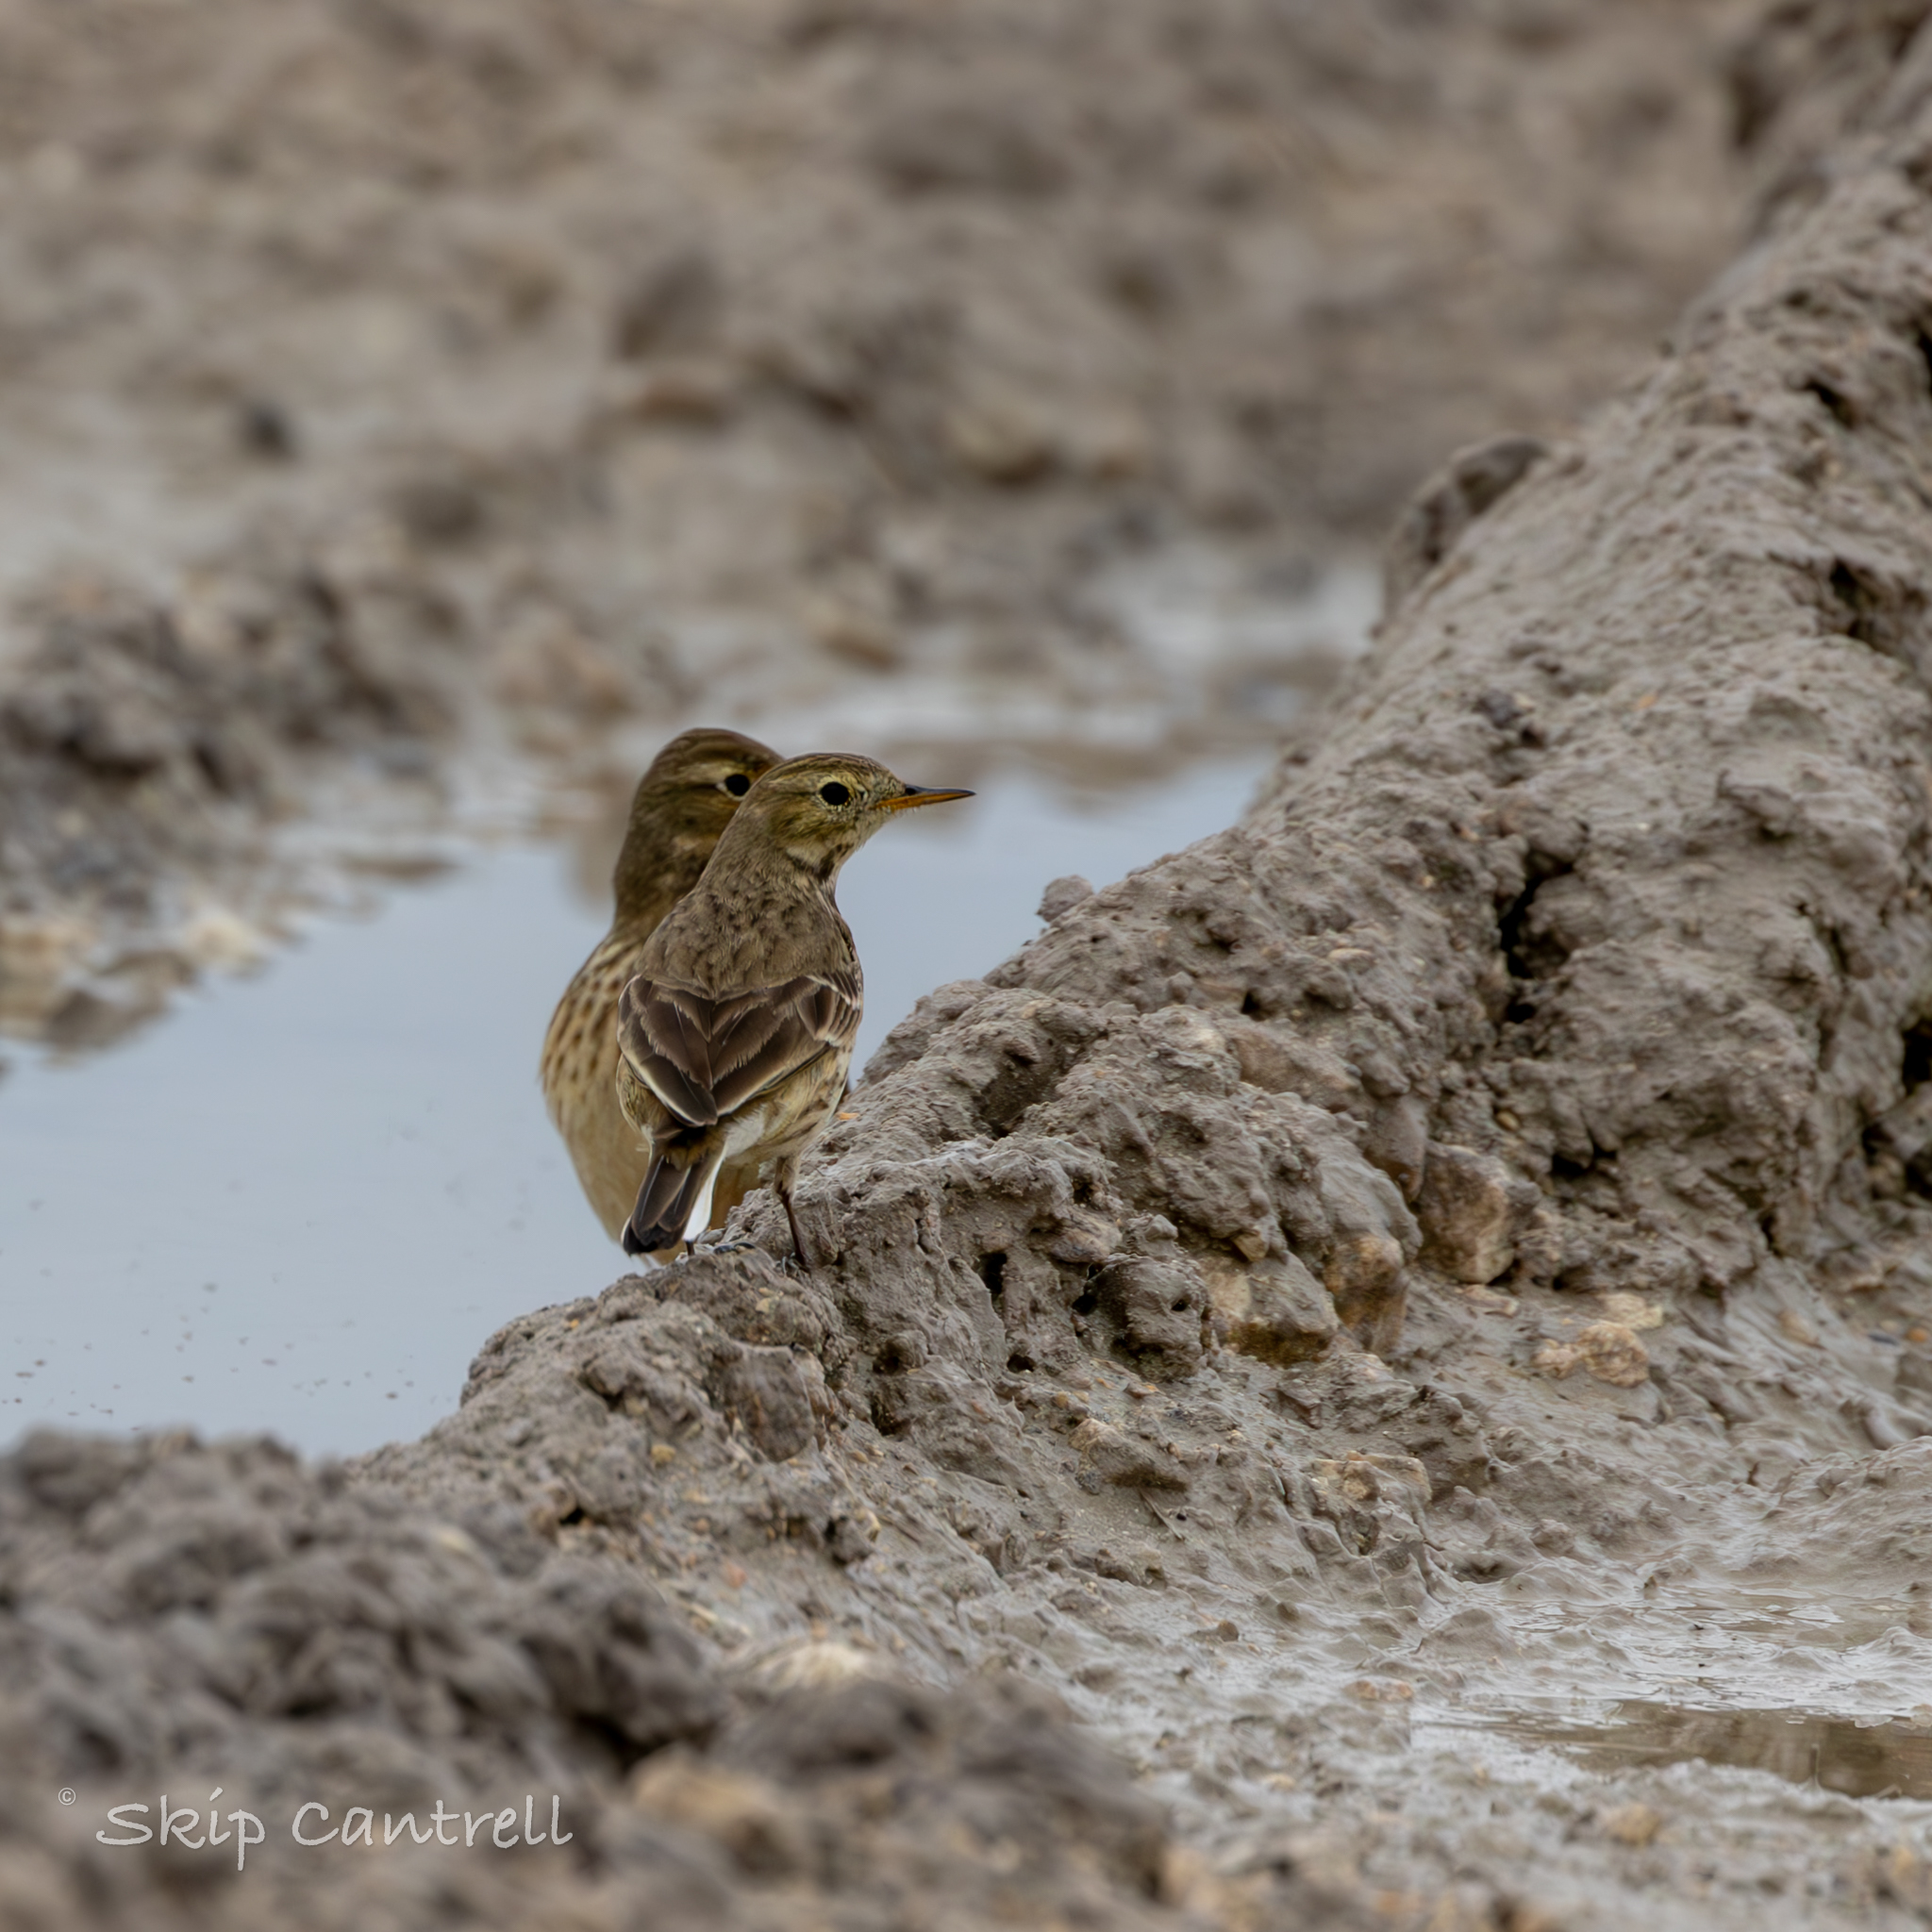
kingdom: Animalia
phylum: Chordata
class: Aves
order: Passeriformes
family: Motacillidae
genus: Anthus
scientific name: Anthus rubescens
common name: Buff-bellied pipit
